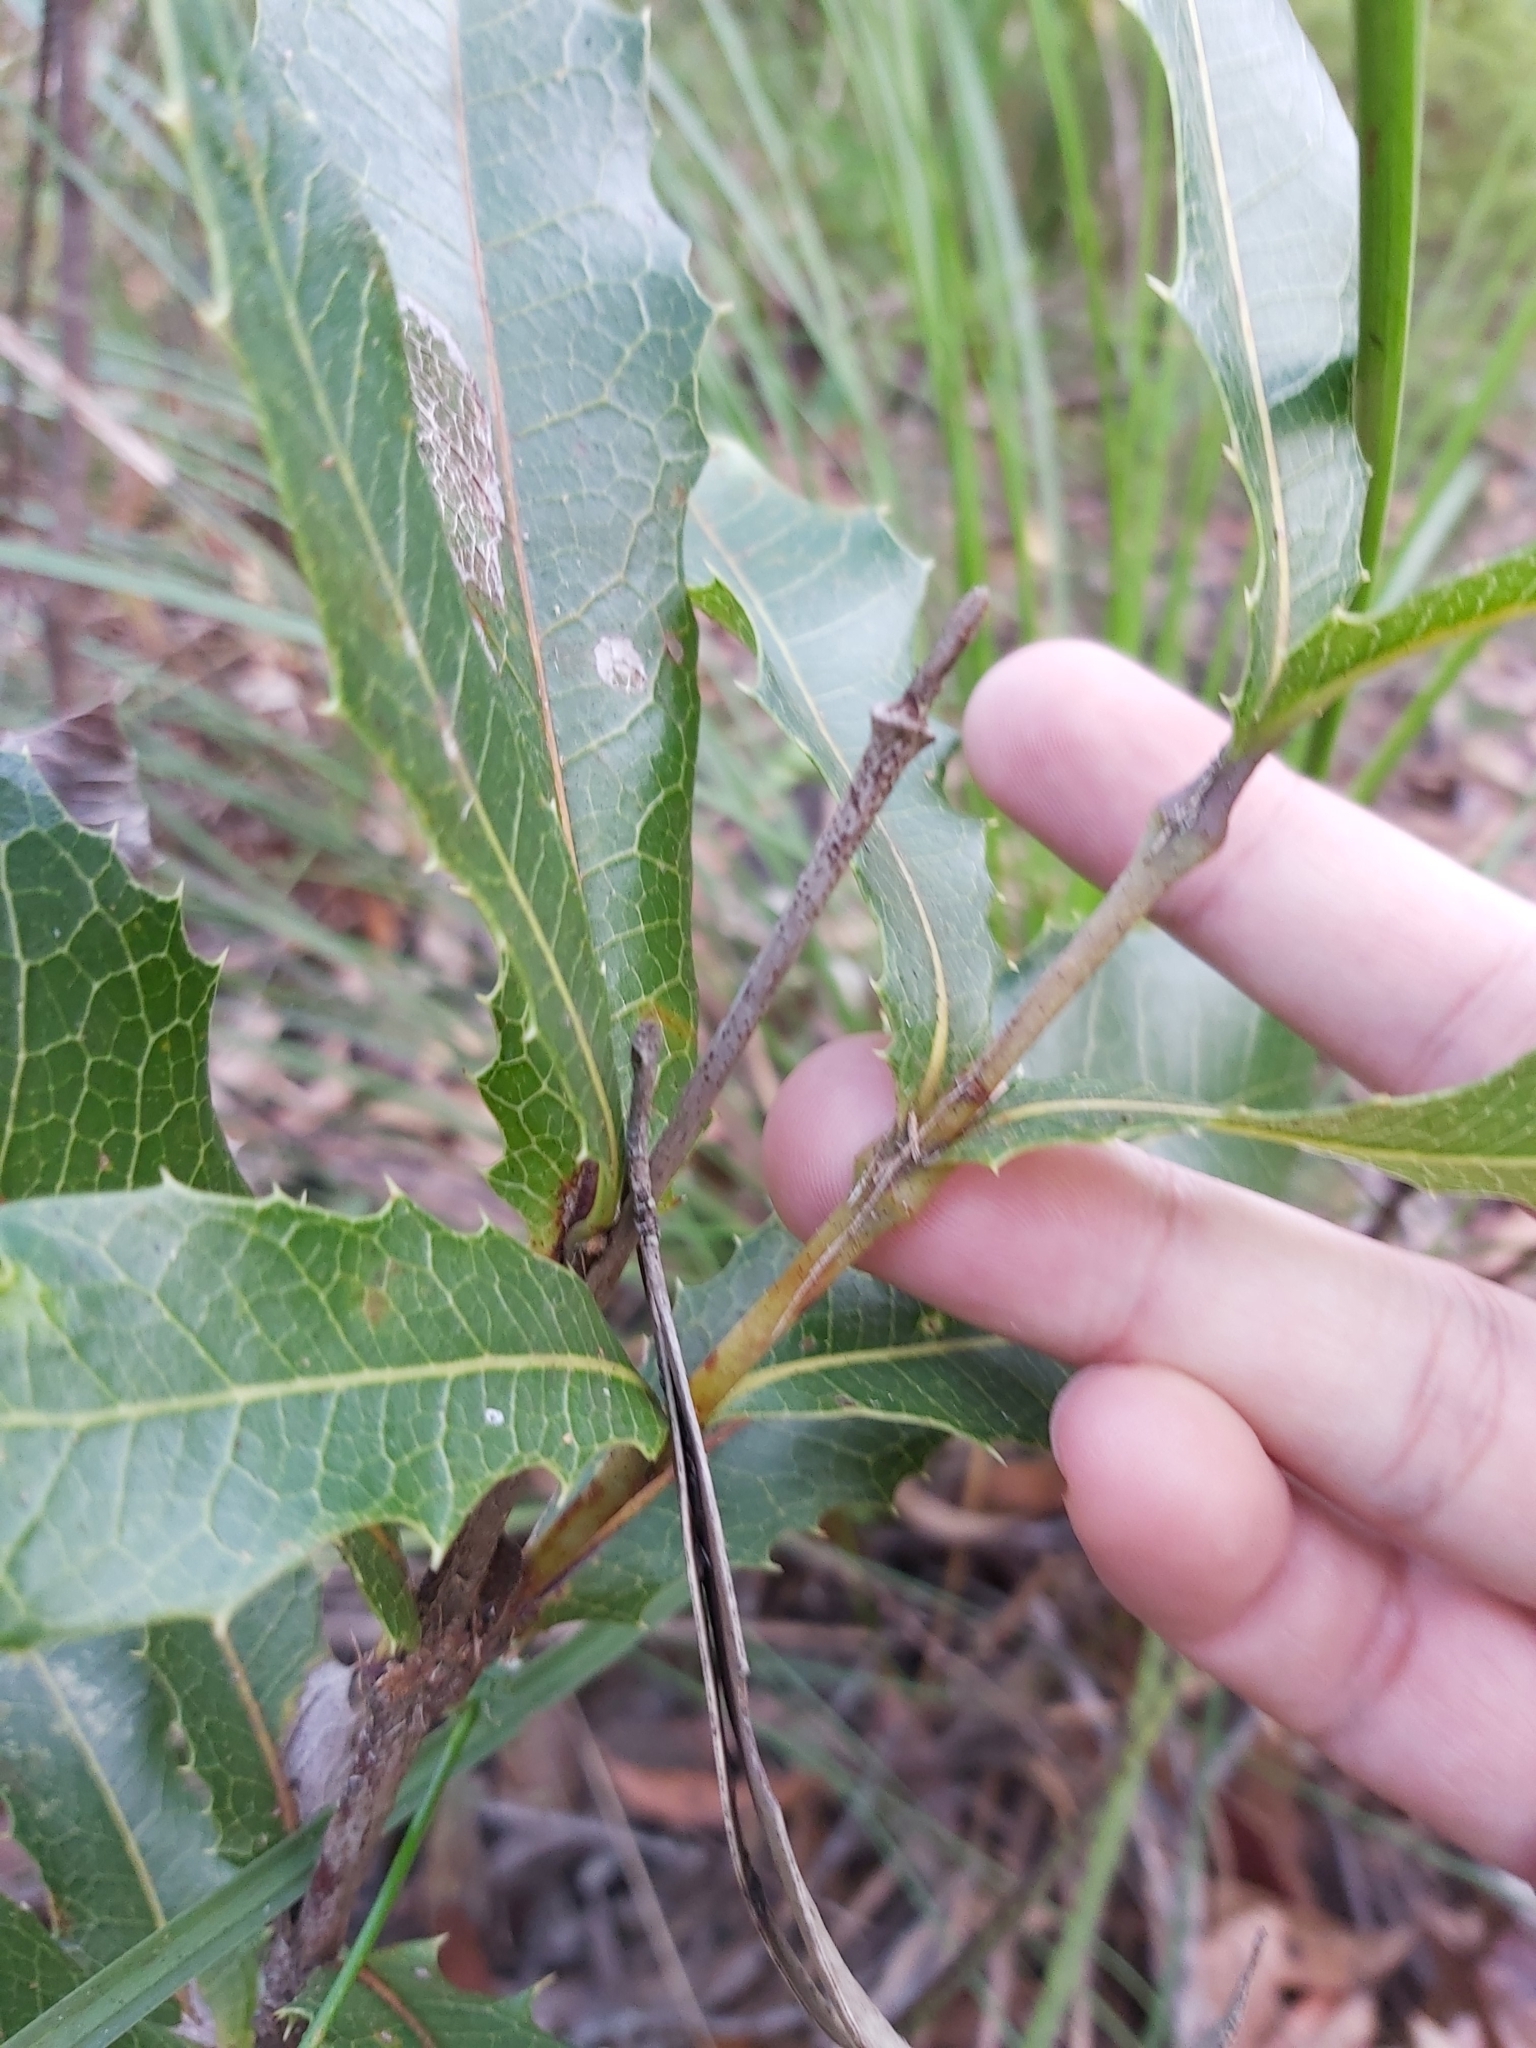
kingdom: Plantae
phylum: Tracheophyta
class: Magnoliopsida
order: Proteales
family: Proteaceae
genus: Xylomelum
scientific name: Xylomelum pyriforme
